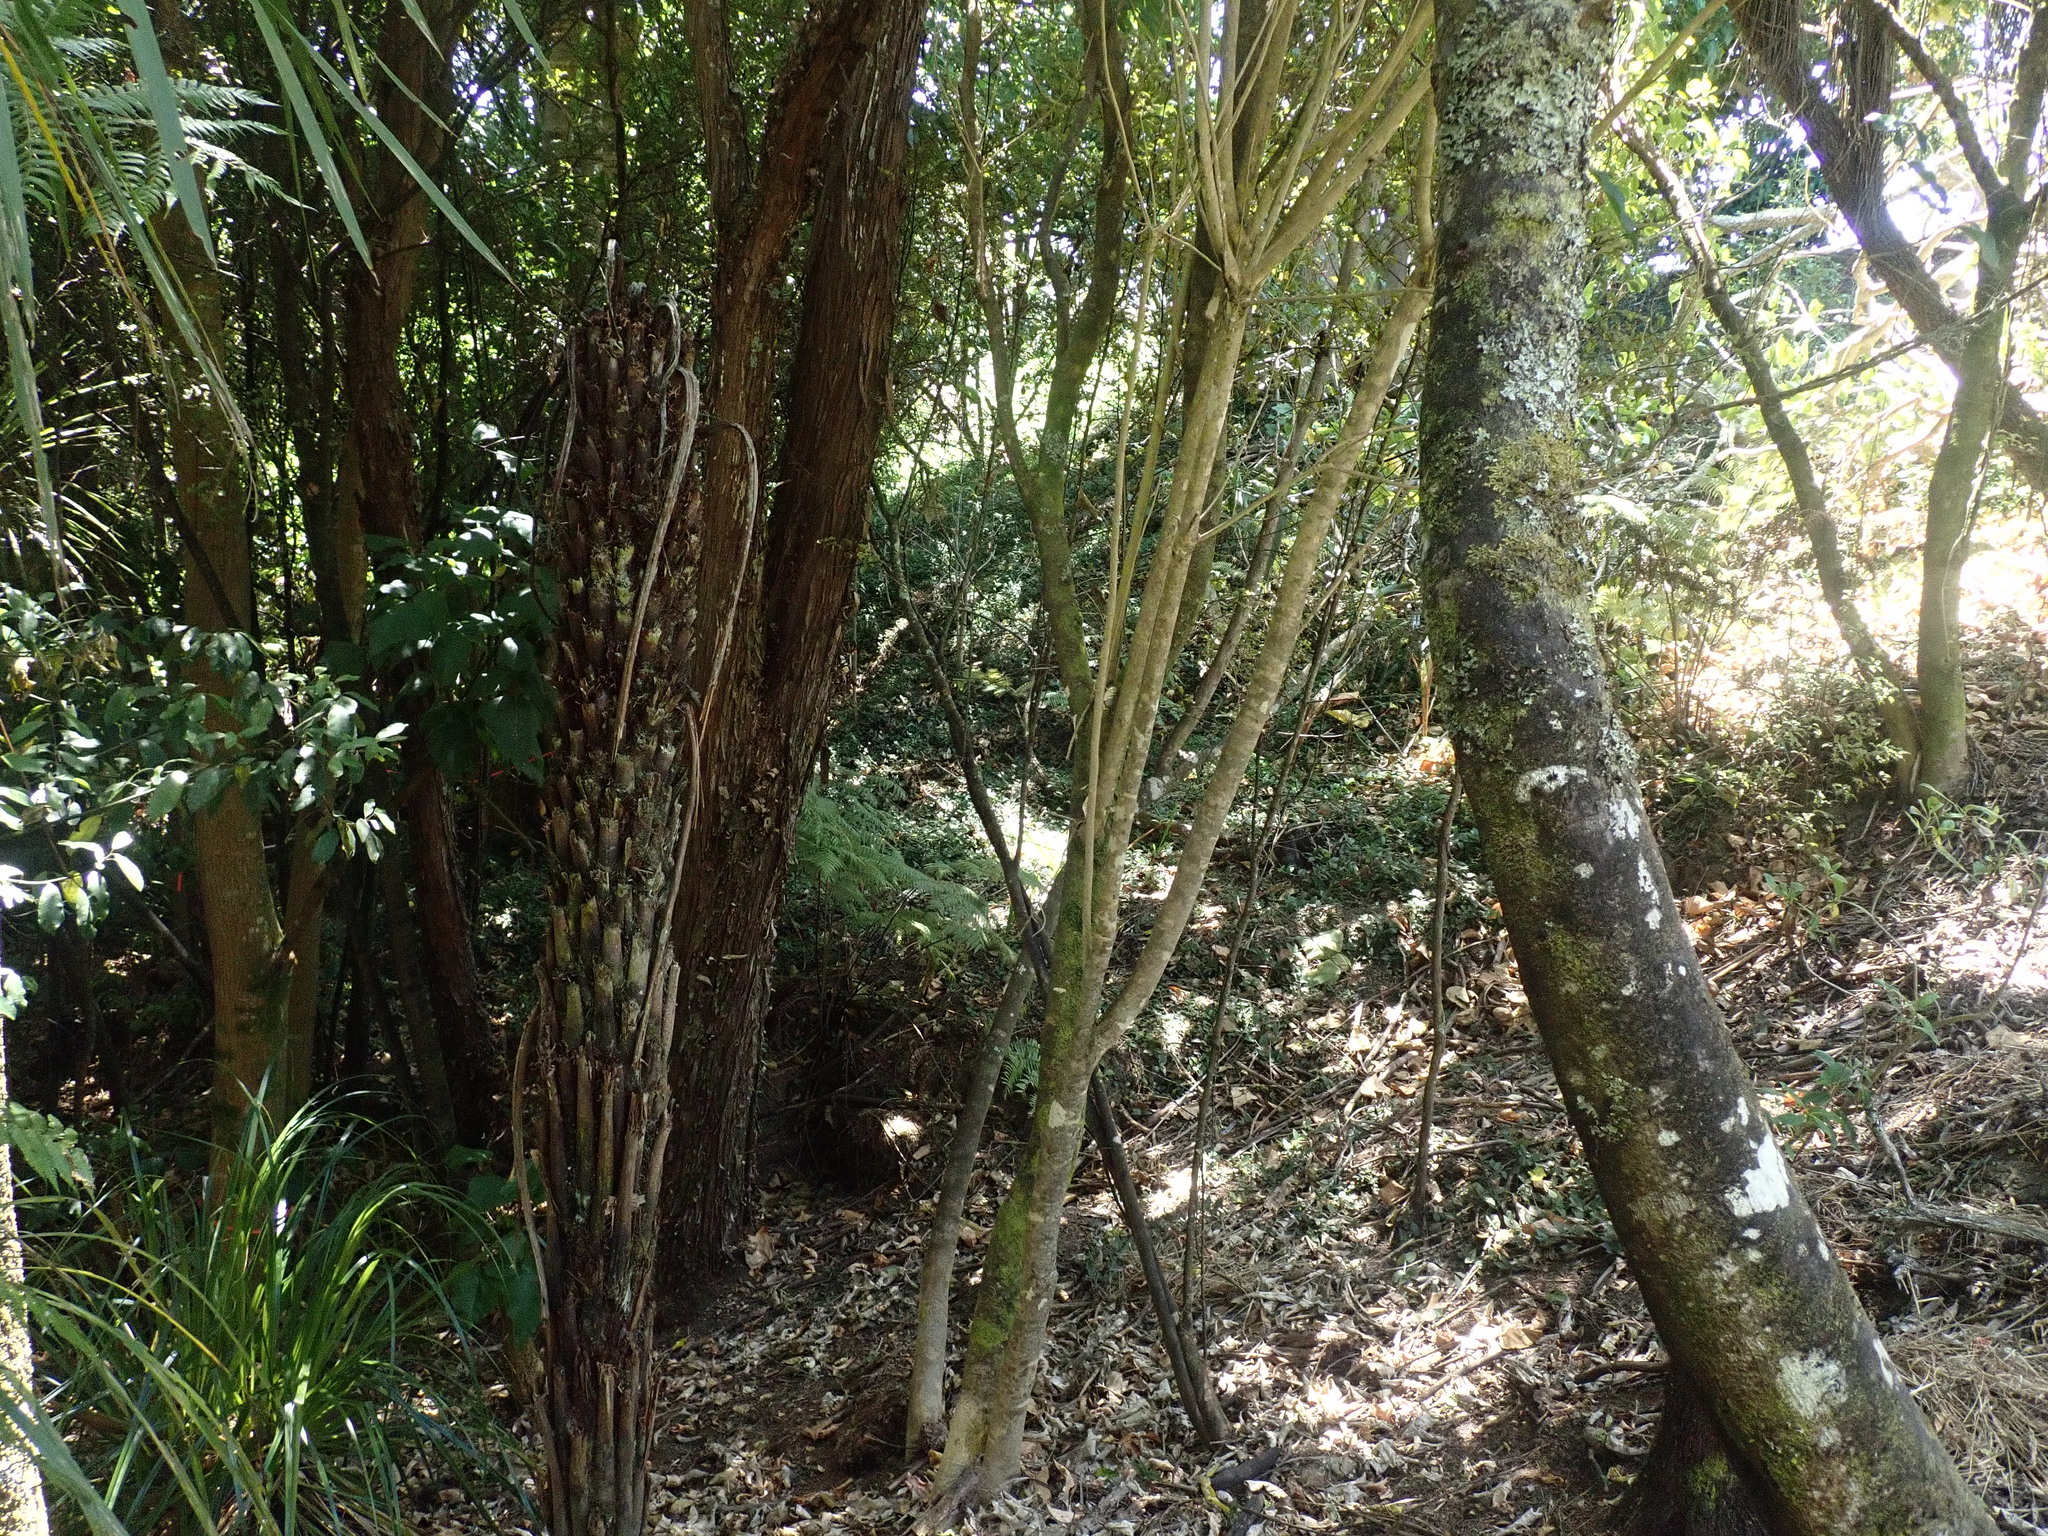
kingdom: Plantae
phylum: Tracheophyta
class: Polypodiopsida
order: Cyatheales
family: Cyatheaceae
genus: Alsophila
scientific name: Alsophila dealbata
